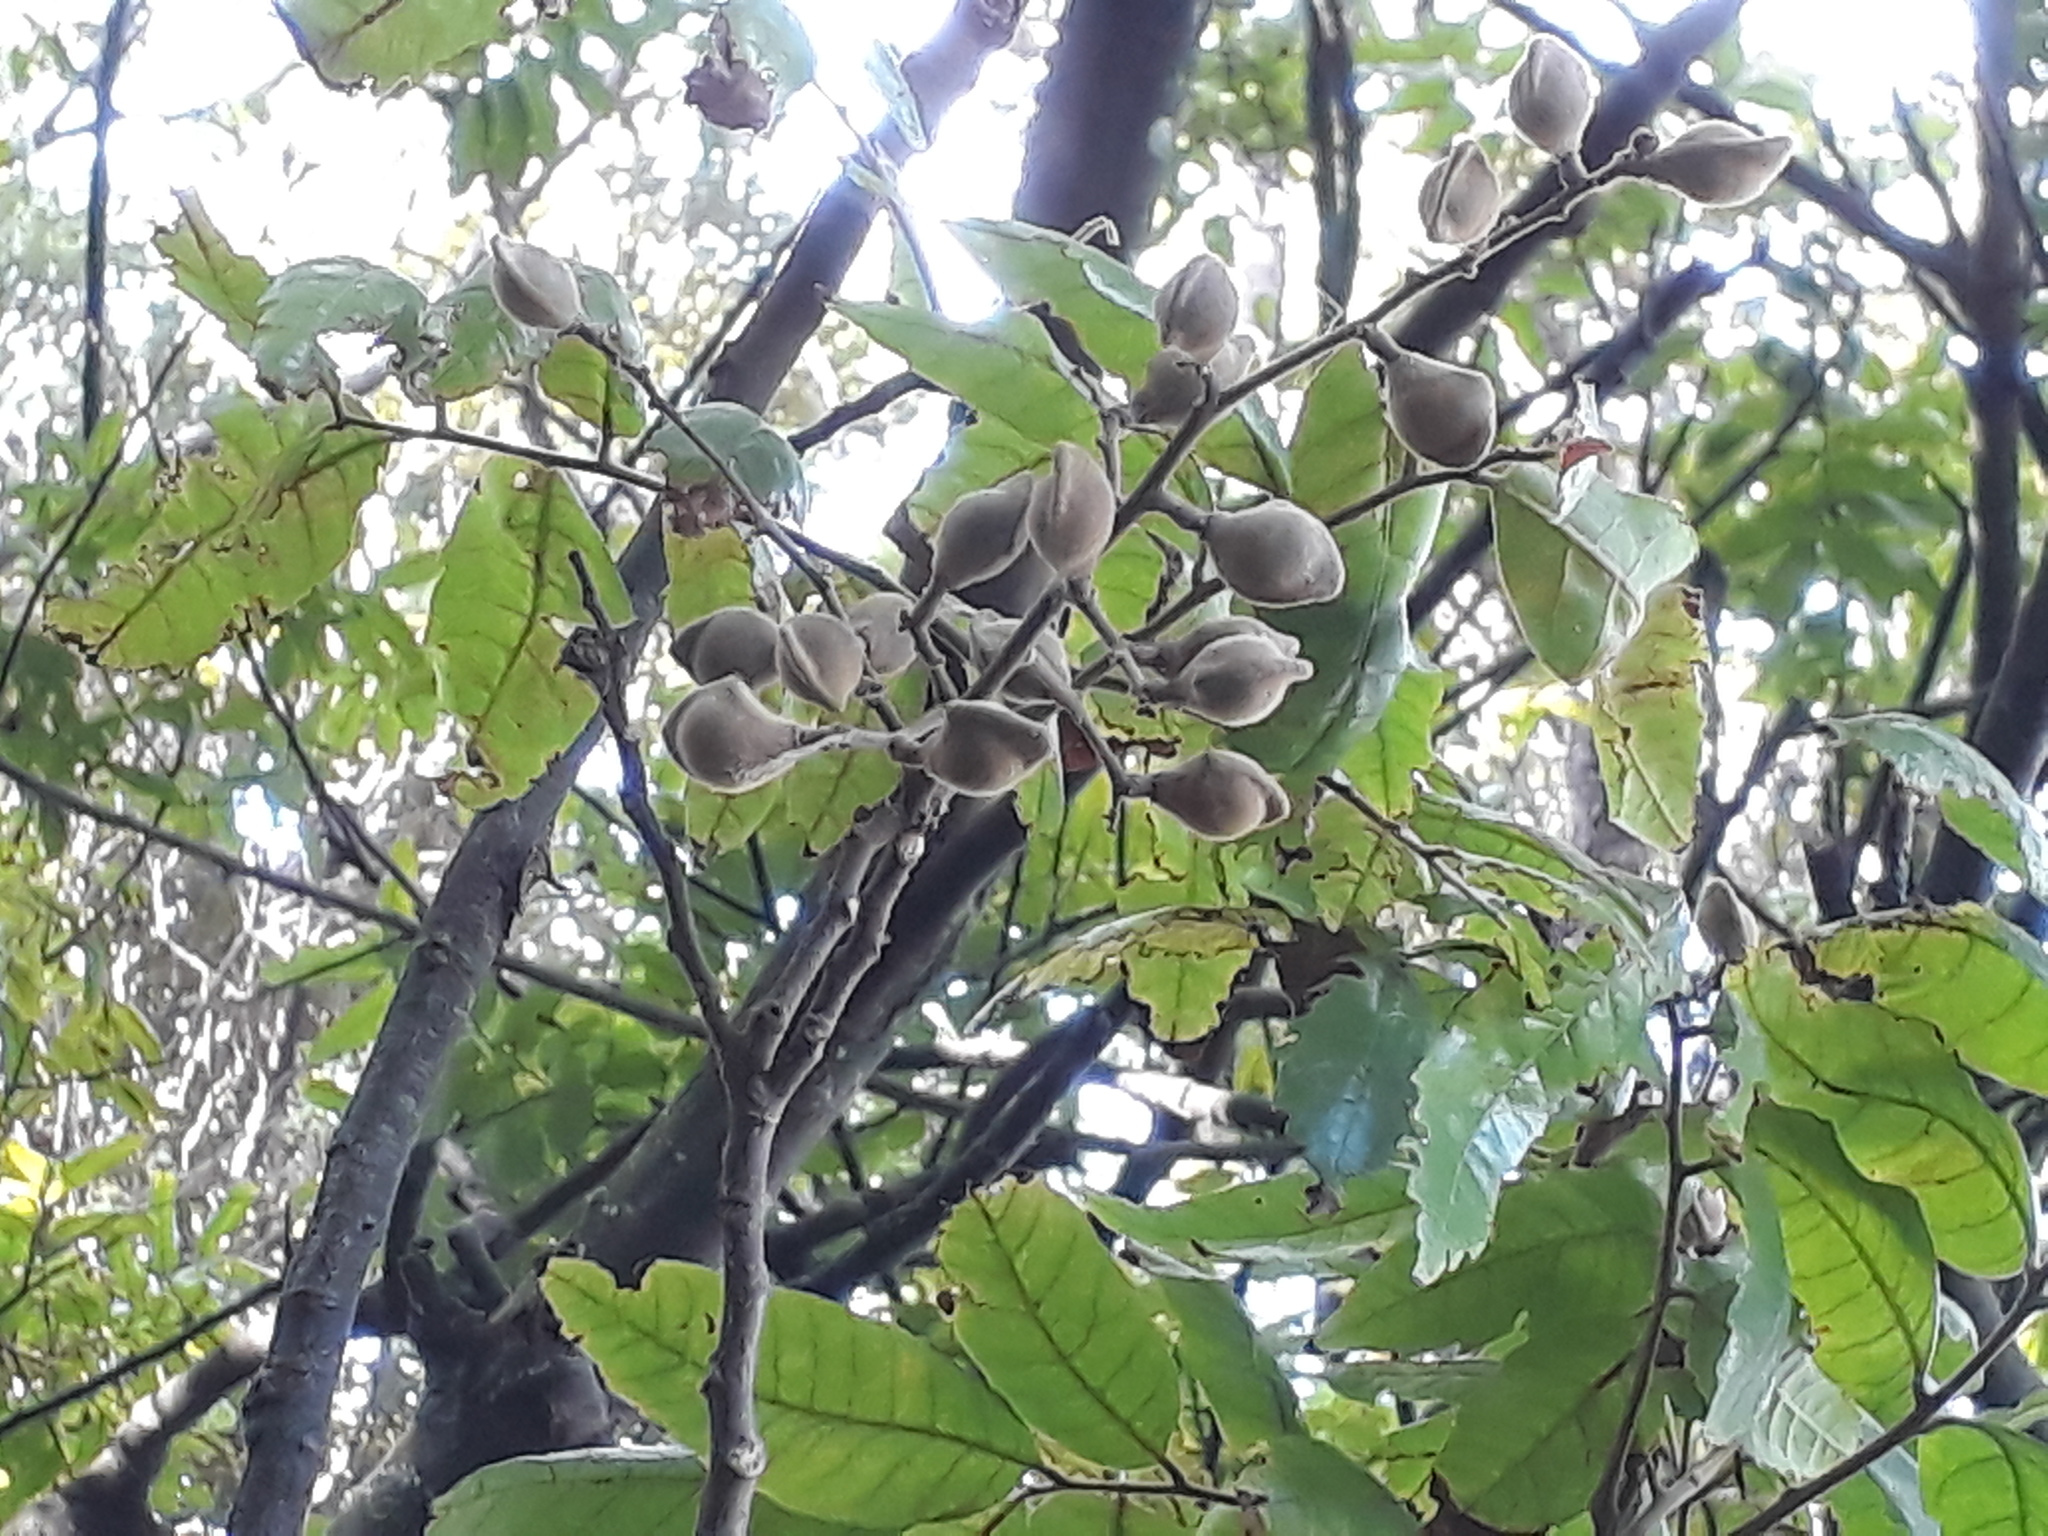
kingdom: Plantae
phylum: Tracheophyta
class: Magnoliopsida
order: Sapindales
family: Sapindaceae
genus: Alectryon
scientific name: Alectryon excelsus
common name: Three kings titoki
